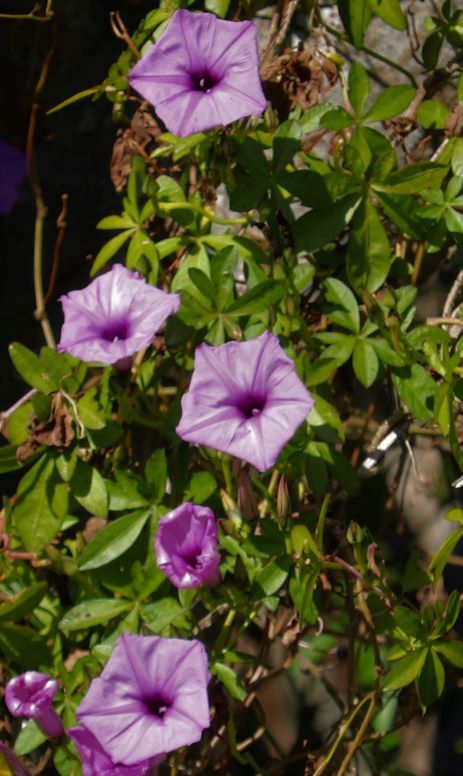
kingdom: Plantae
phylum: Tracheophyta
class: Magnoliopsida
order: Solanales
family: Convolvulaceae
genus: Ipomoea
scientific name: Ipomoea cairica
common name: Mile a minute vine
